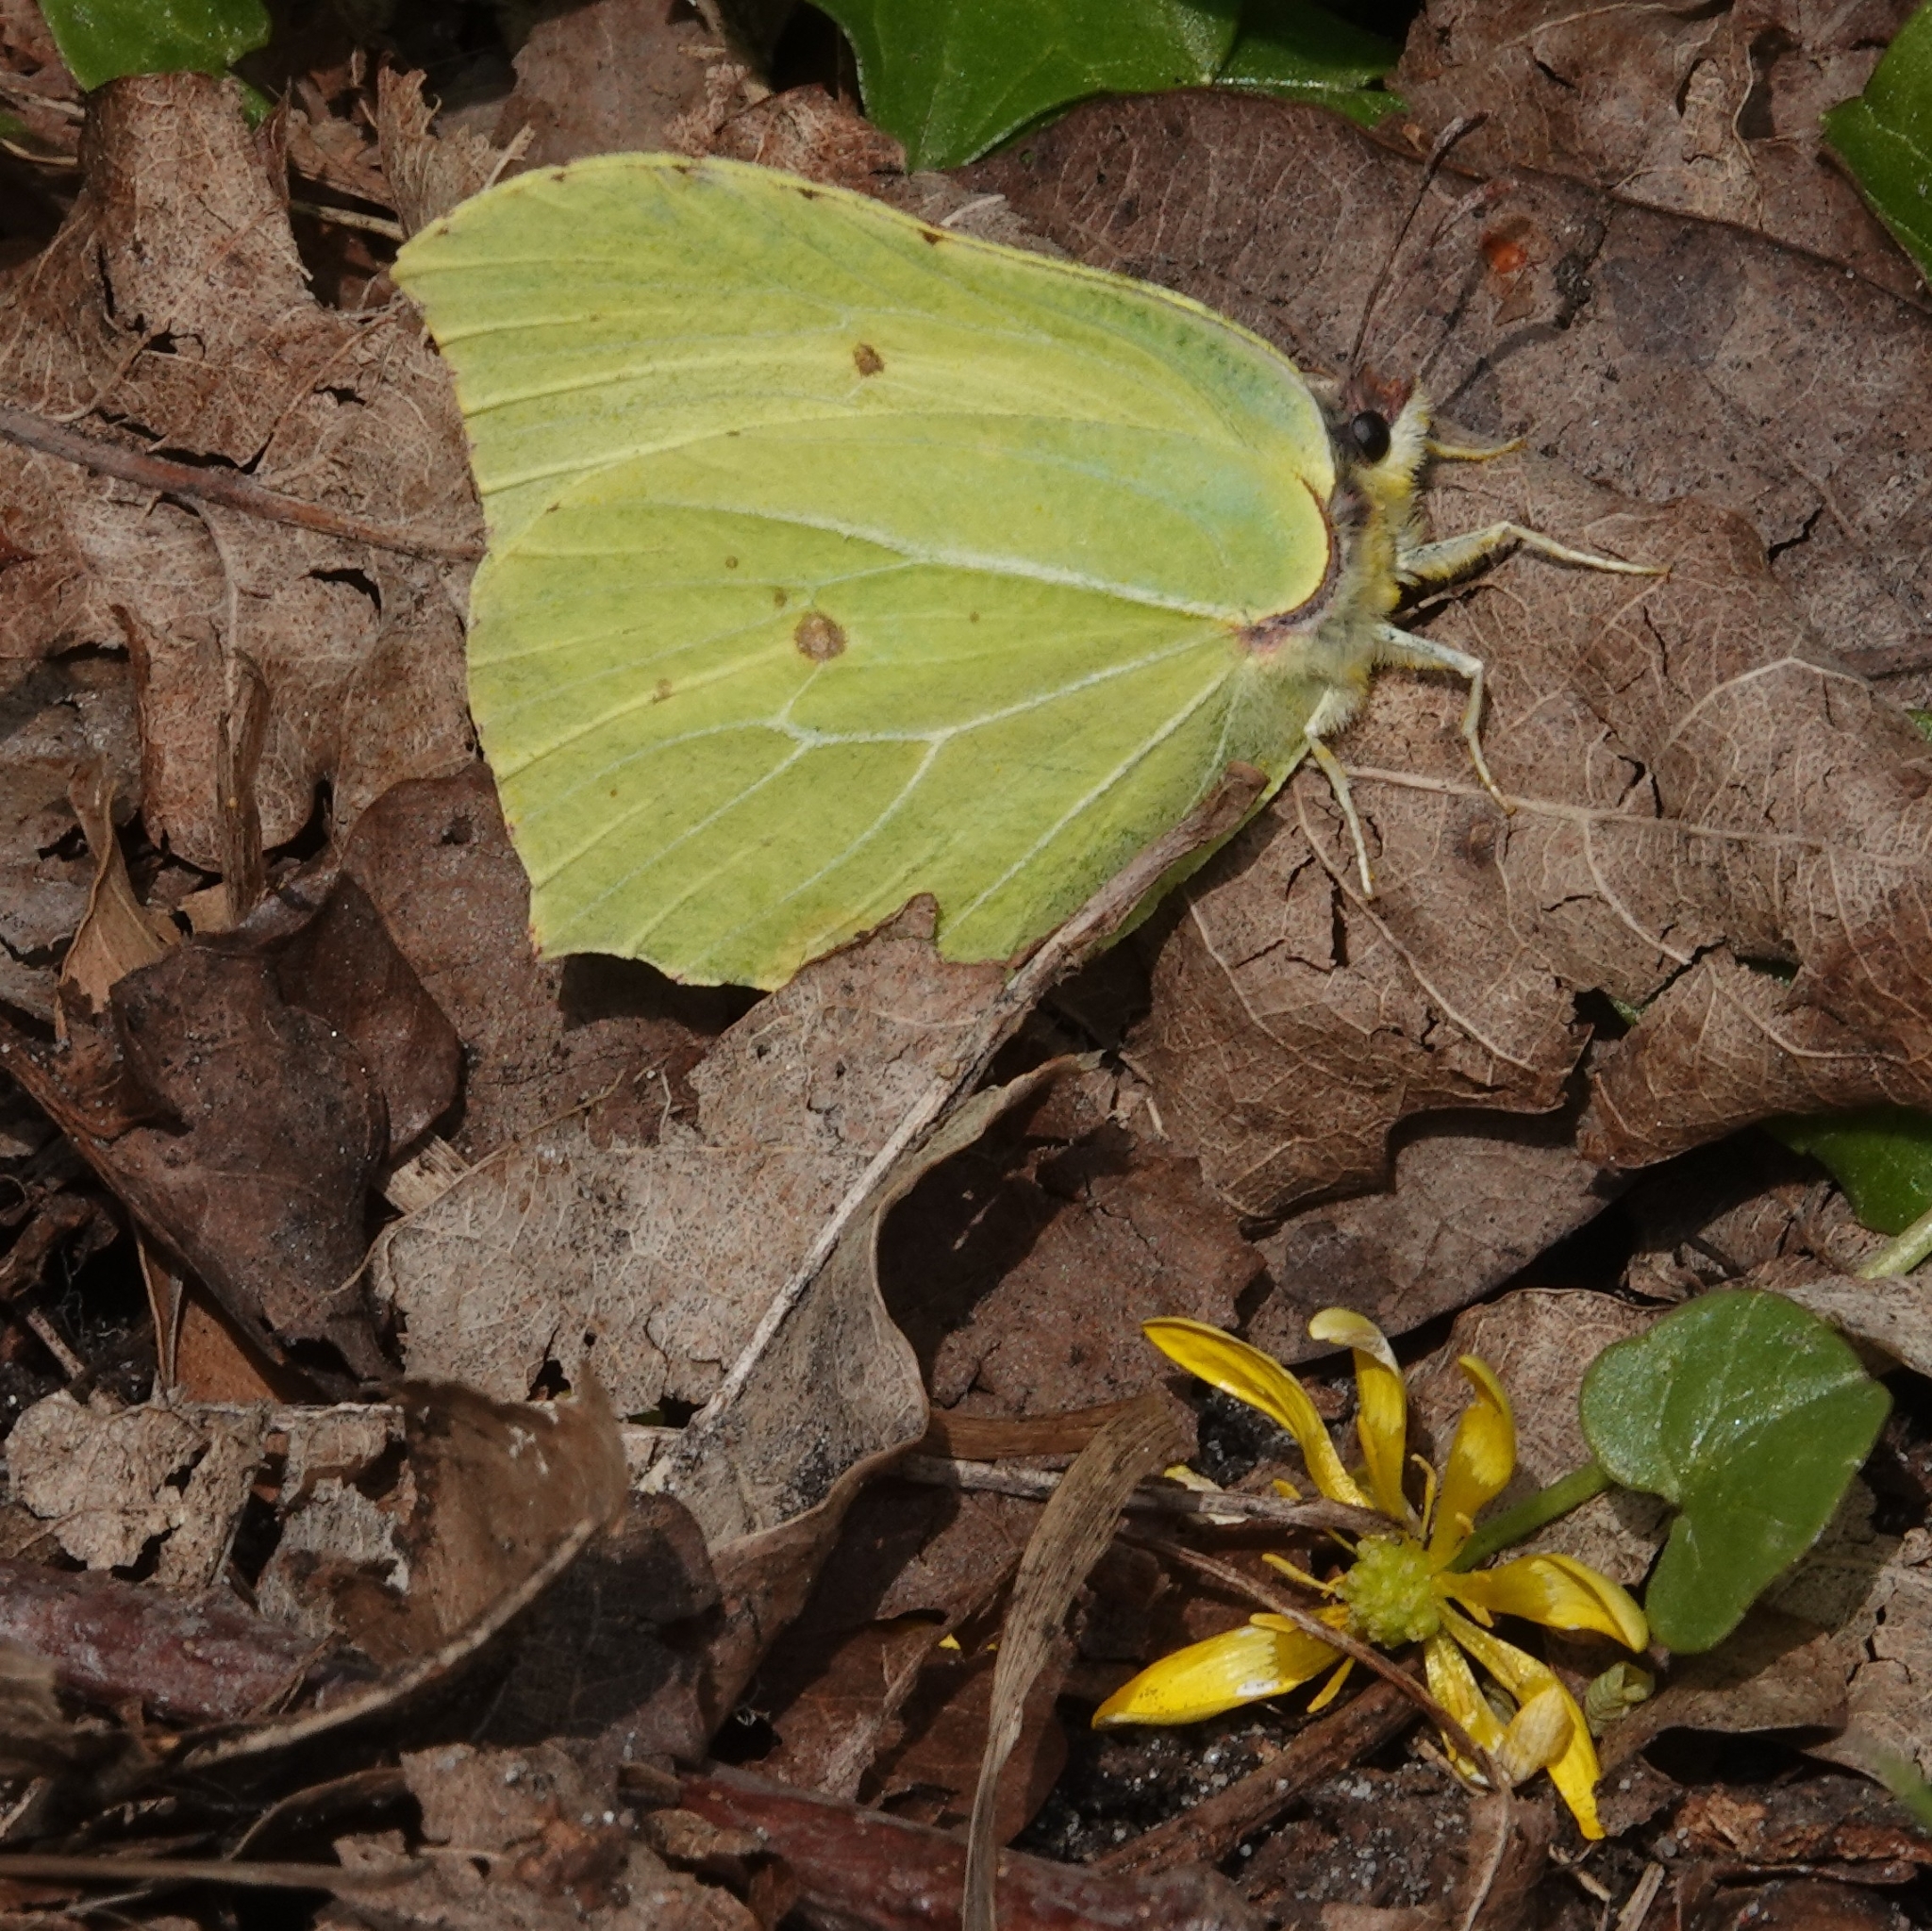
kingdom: Animalia
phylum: Arthropoda
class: Insecta
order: Lepidoptera
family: Pieridae
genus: Gonepteryx
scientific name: Gonepteryx rhamni
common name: Brimstone
